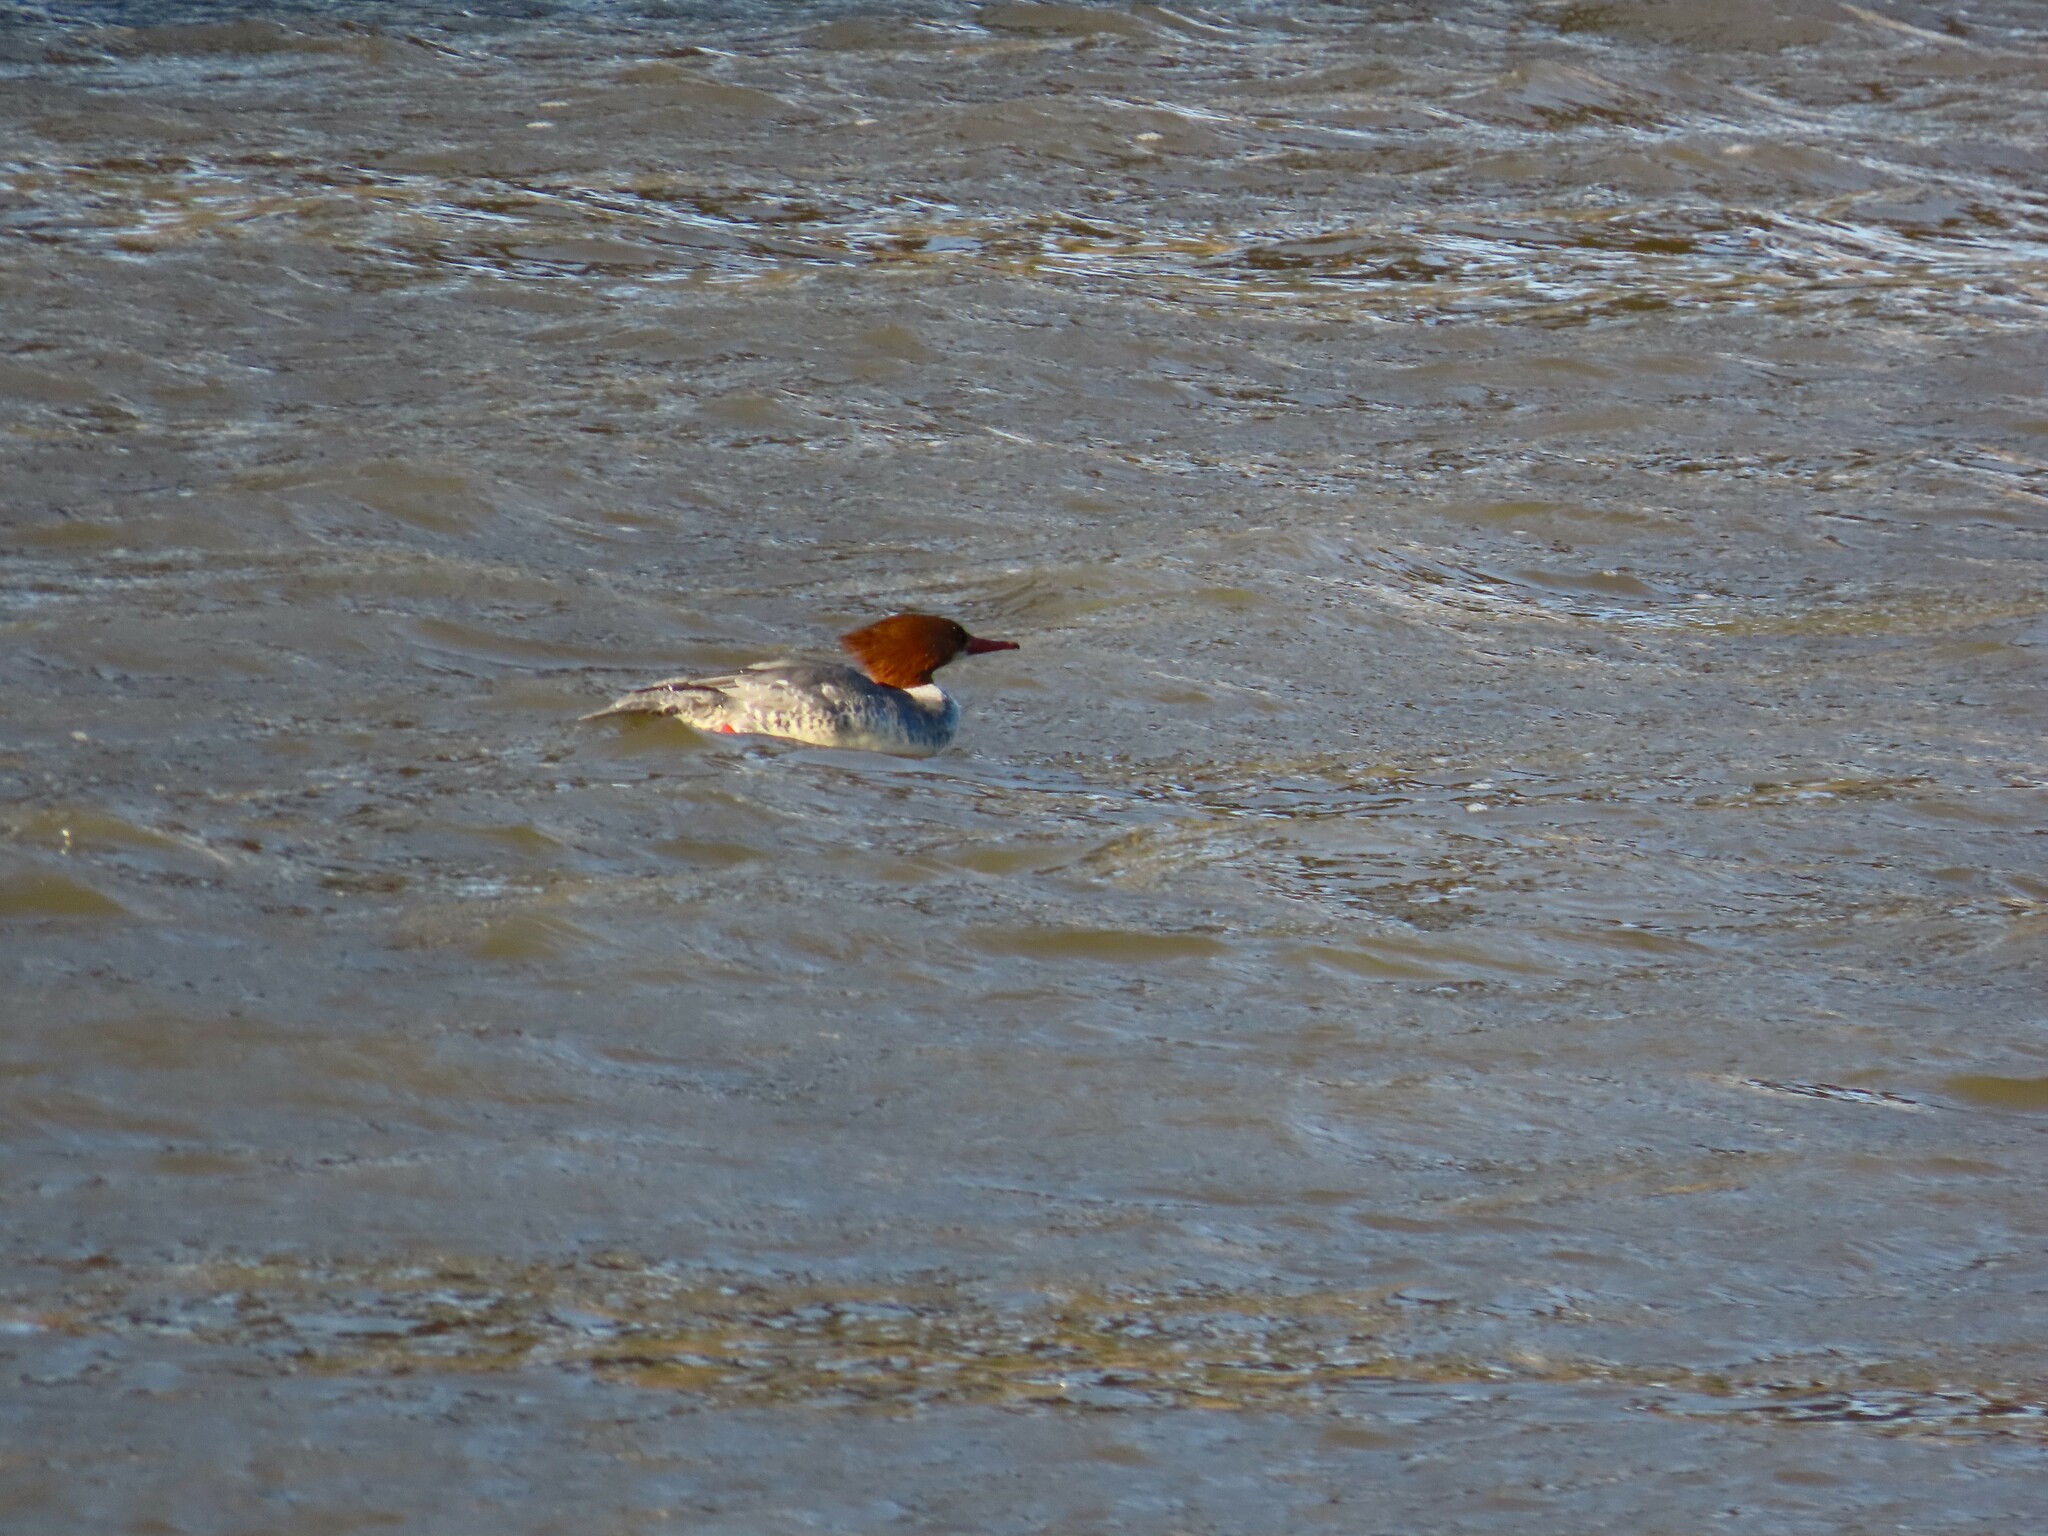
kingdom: Animalia
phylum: Chordata
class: Aves
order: Anseriformes
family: Anatidae
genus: Mergus
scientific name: Mergus merganser
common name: Common merganser
